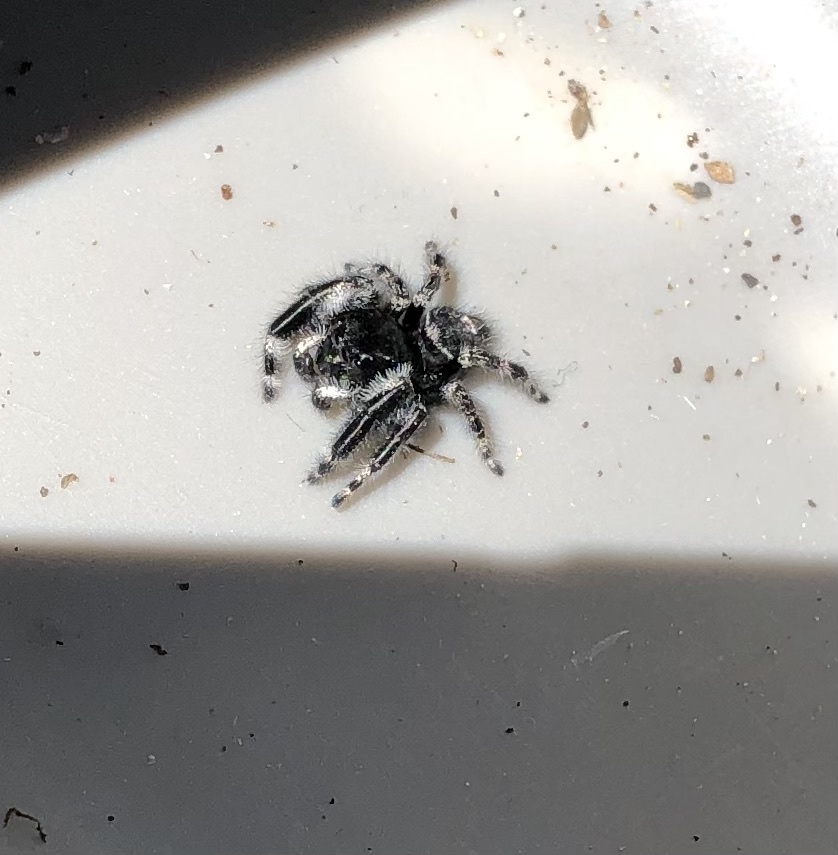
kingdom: Animalia
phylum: Arthropoda
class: Arachnida
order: Araneae
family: Salticidae
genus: Phidippus
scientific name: Phidippus audax
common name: Bold jumper
